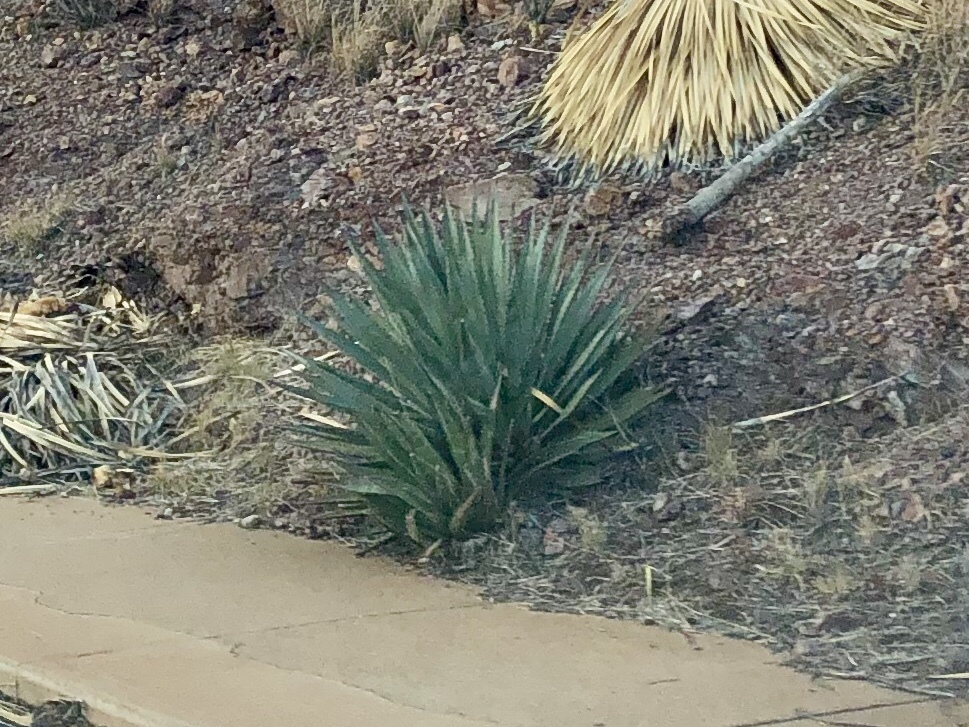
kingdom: Plantae
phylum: Tracheophyta
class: Liliopsida
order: Asparagales
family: Asparagaceae
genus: Agave
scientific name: Agave palmeri
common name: Palmer agave
